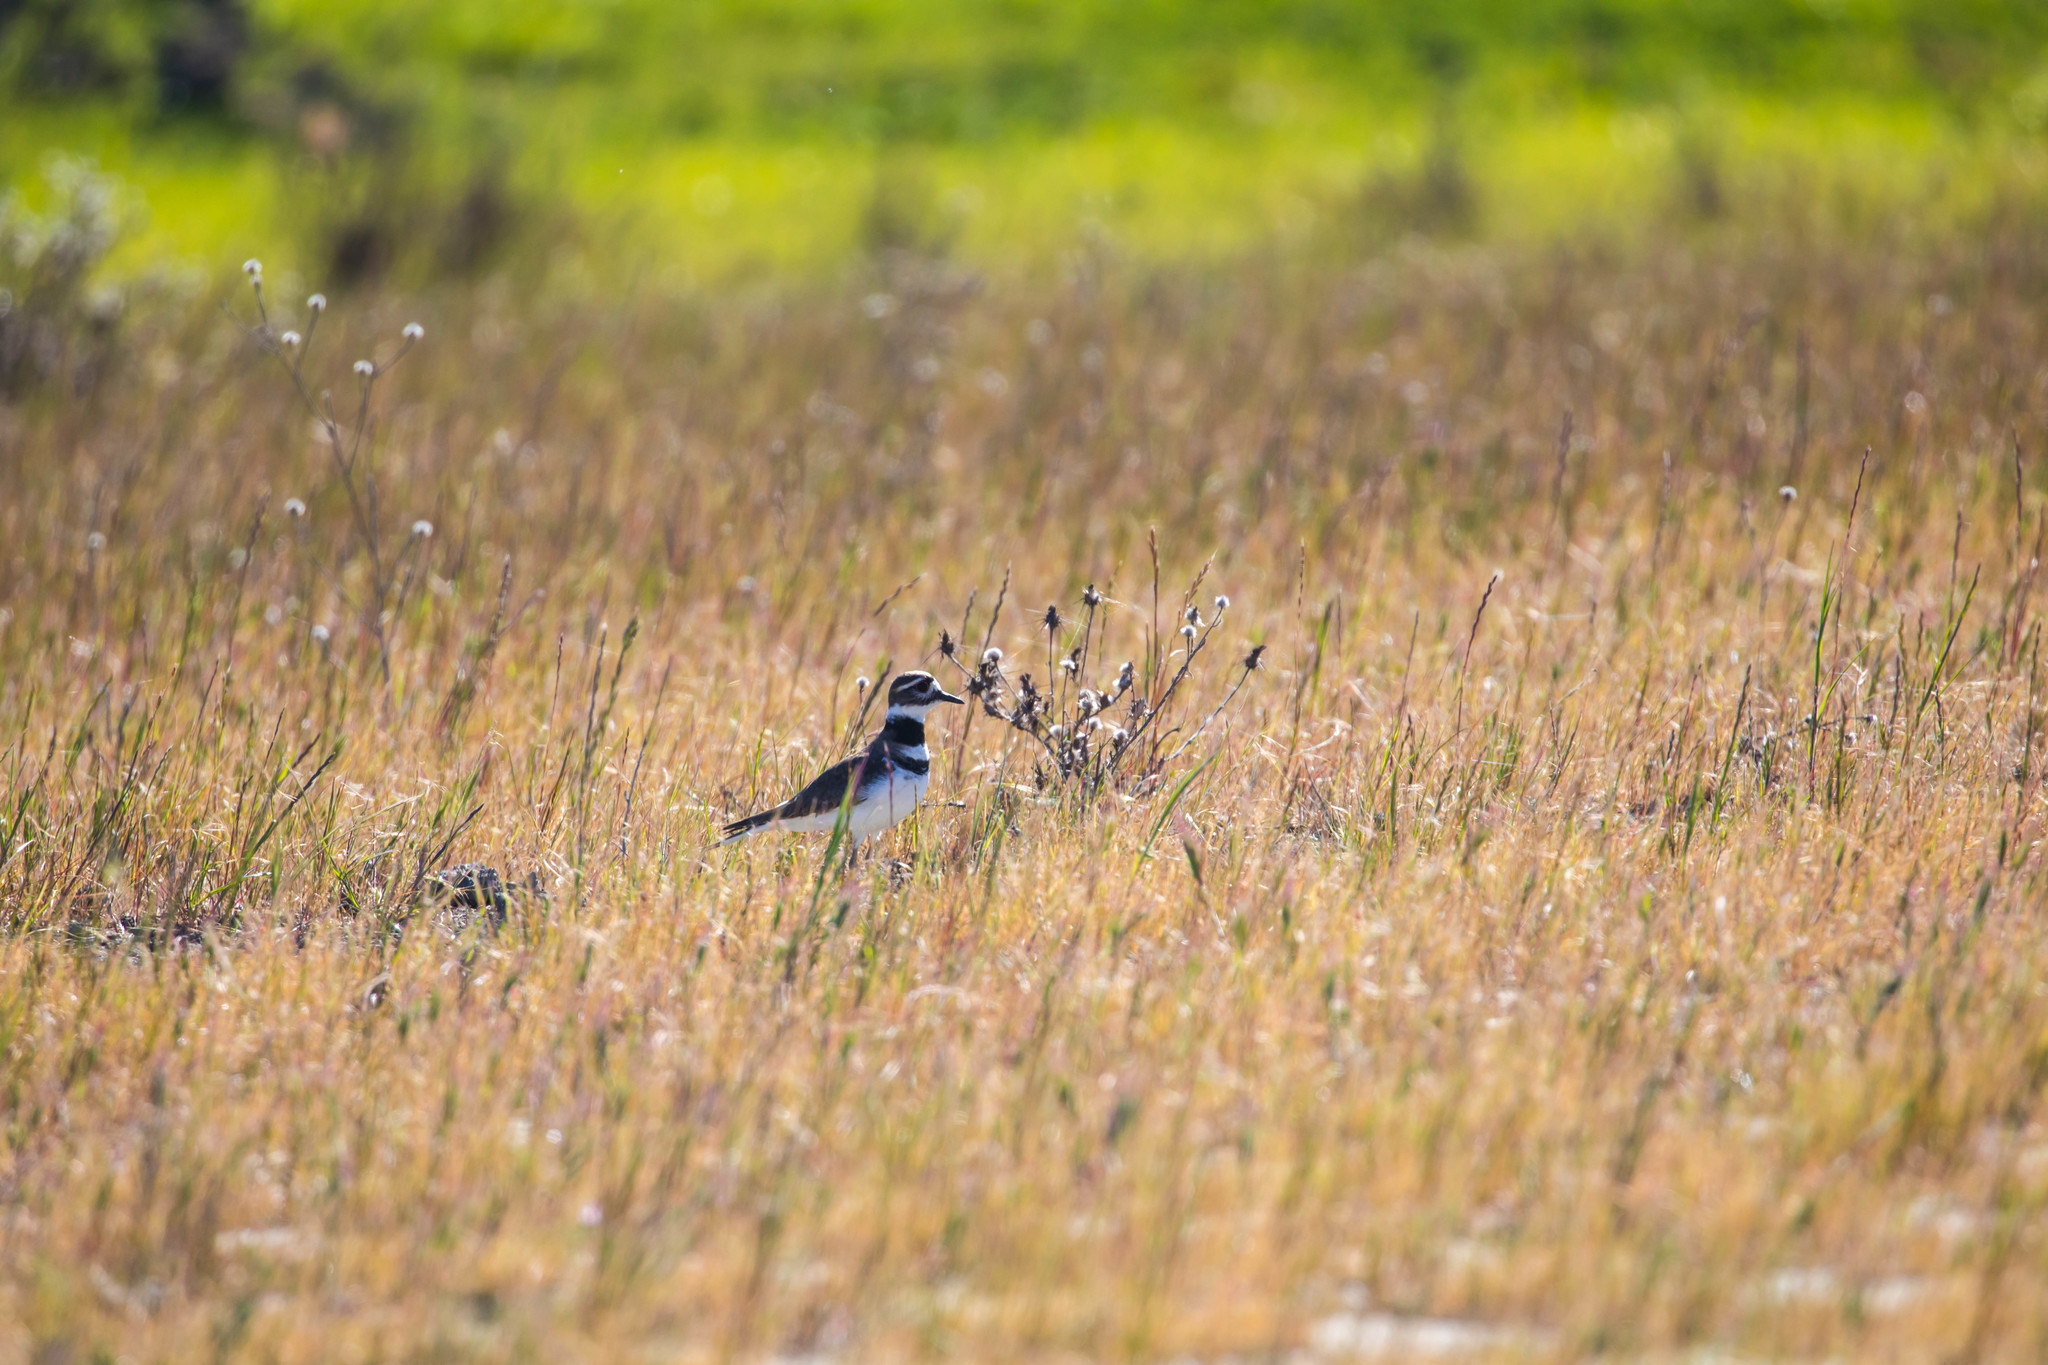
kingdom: Animalia
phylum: Chordata
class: Aves
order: Charadriiformes
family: Charadriidae
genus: Charadrius
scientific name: Charadrius vociferus
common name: Killdeer
